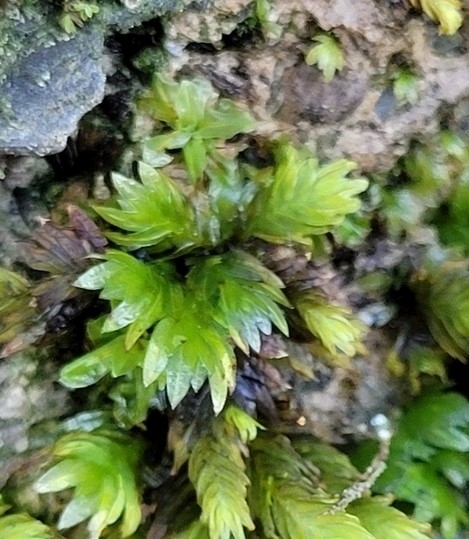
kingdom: Plantae
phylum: Bryophyta
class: Bryopsida
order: Dicranales
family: Fissidentaceae
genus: Fissidens
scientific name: Fissidens dubius
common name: Rock pocket moss
